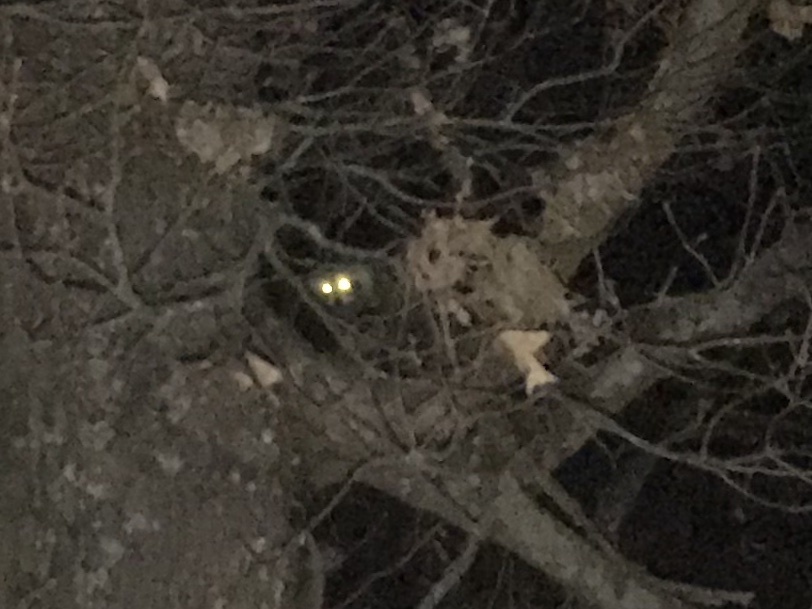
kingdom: Animalia
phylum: Chordata
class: Mammalia
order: Carnivora
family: Procyonidae
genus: Procyon
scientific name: Procyon lotor
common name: Raccoon
